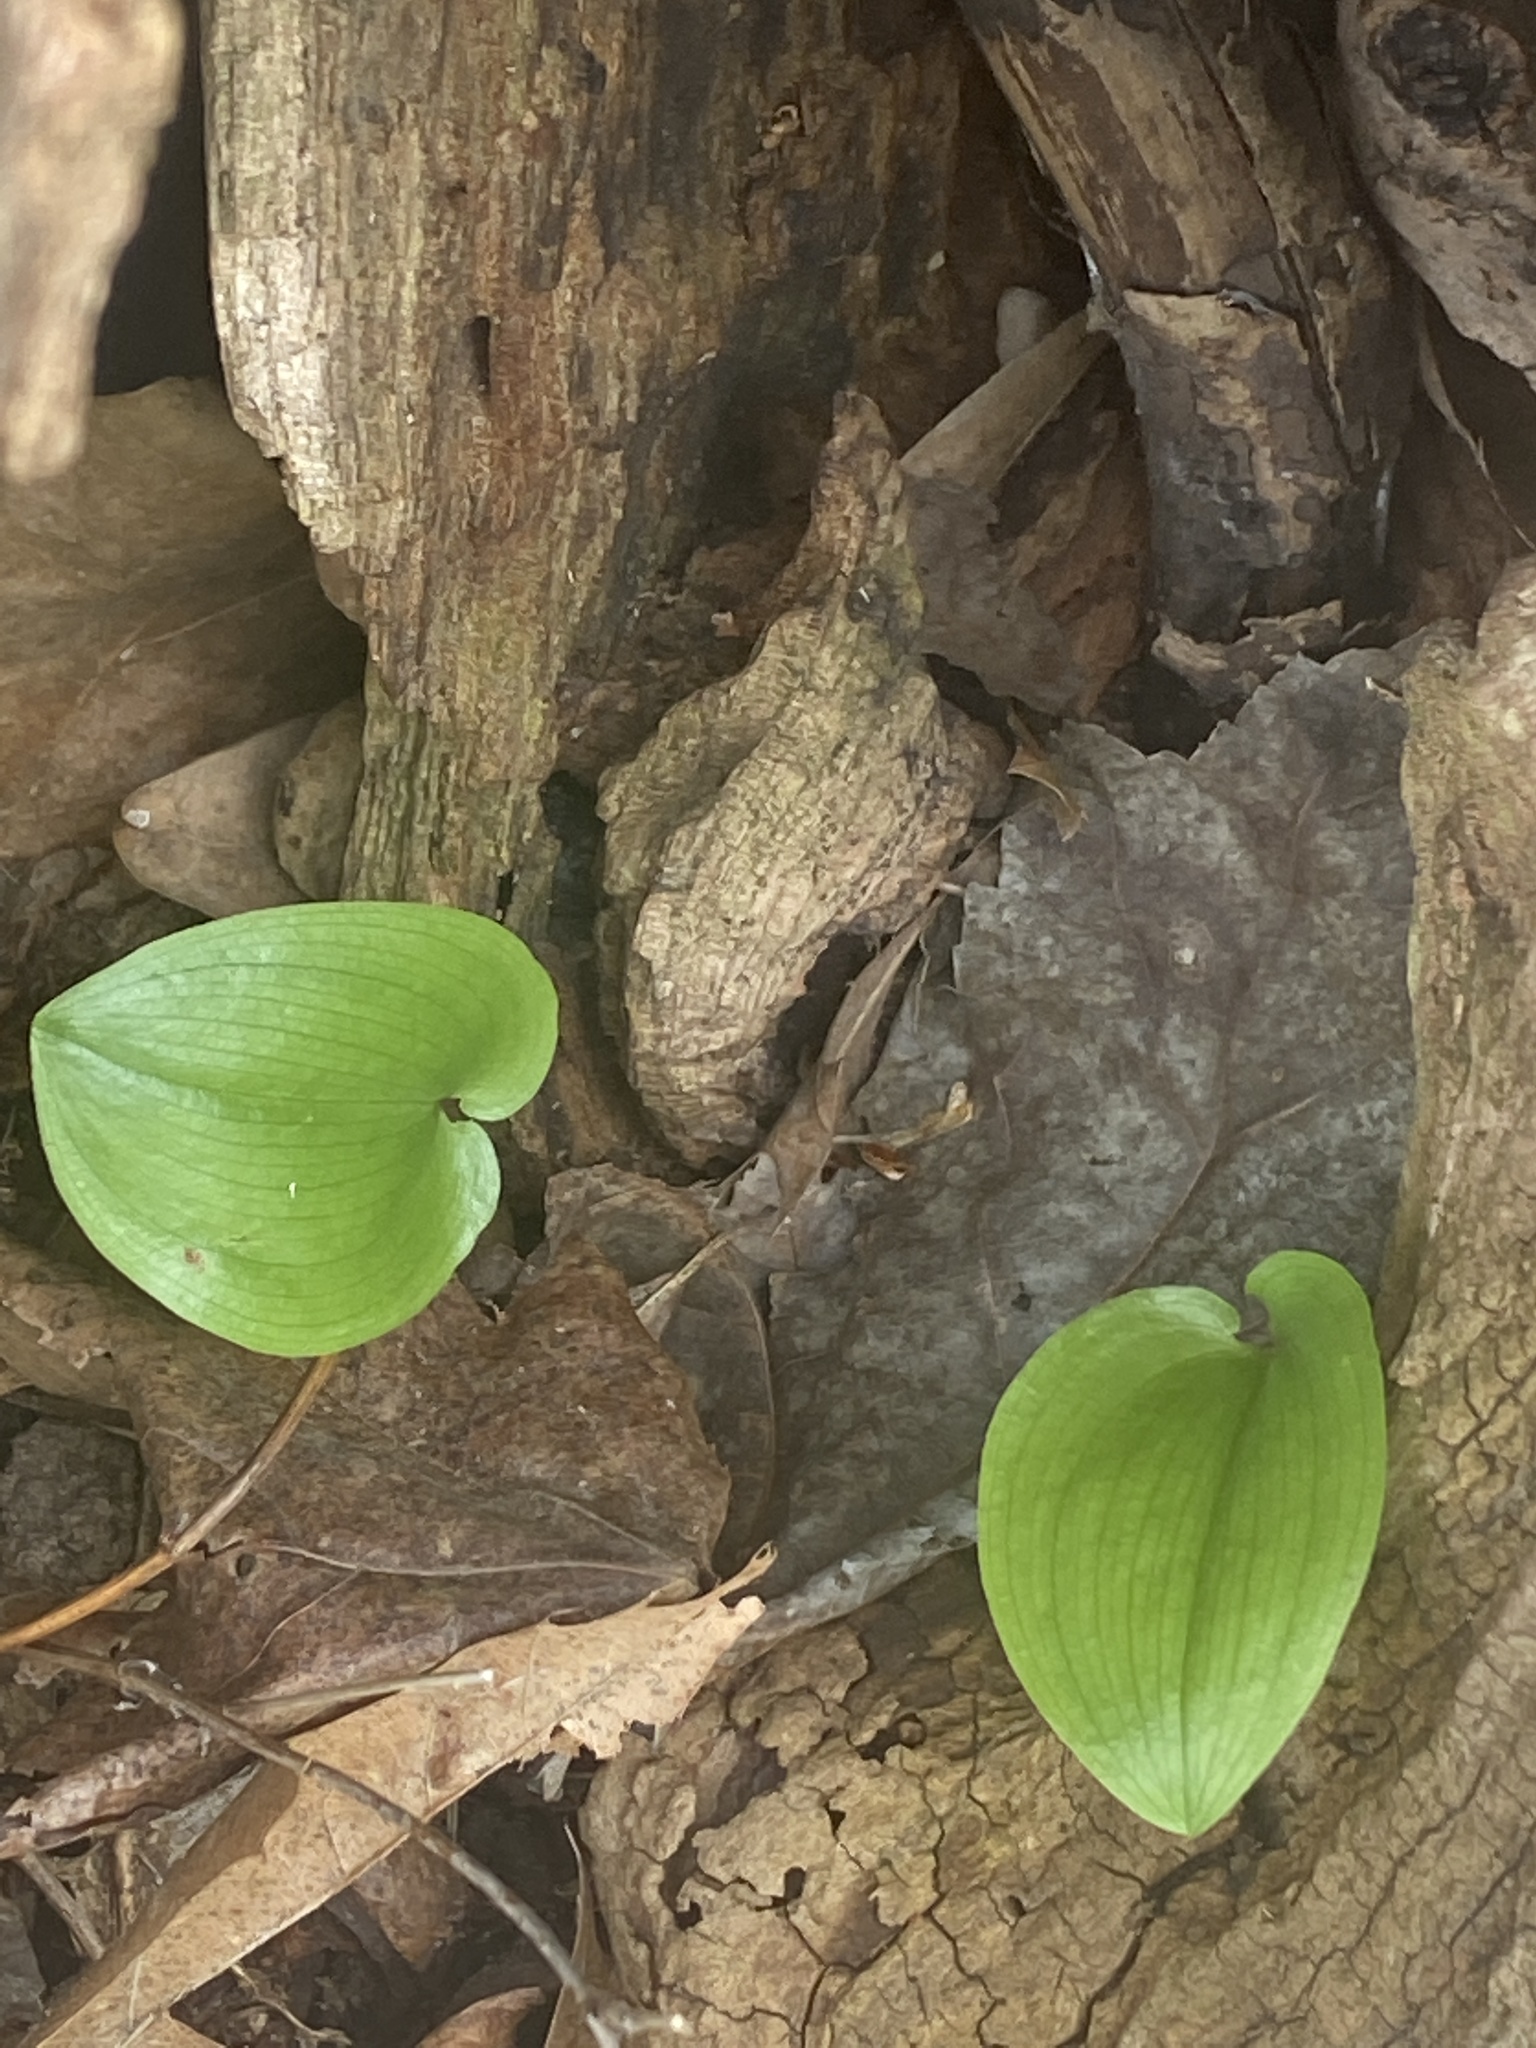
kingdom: Plantae
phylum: Tracheophyta
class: Liliopsida
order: Asparagales
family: Asparagaceae
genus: Maianthemum
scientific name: Maianthemum canadense
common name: False lily-of-the-valley
